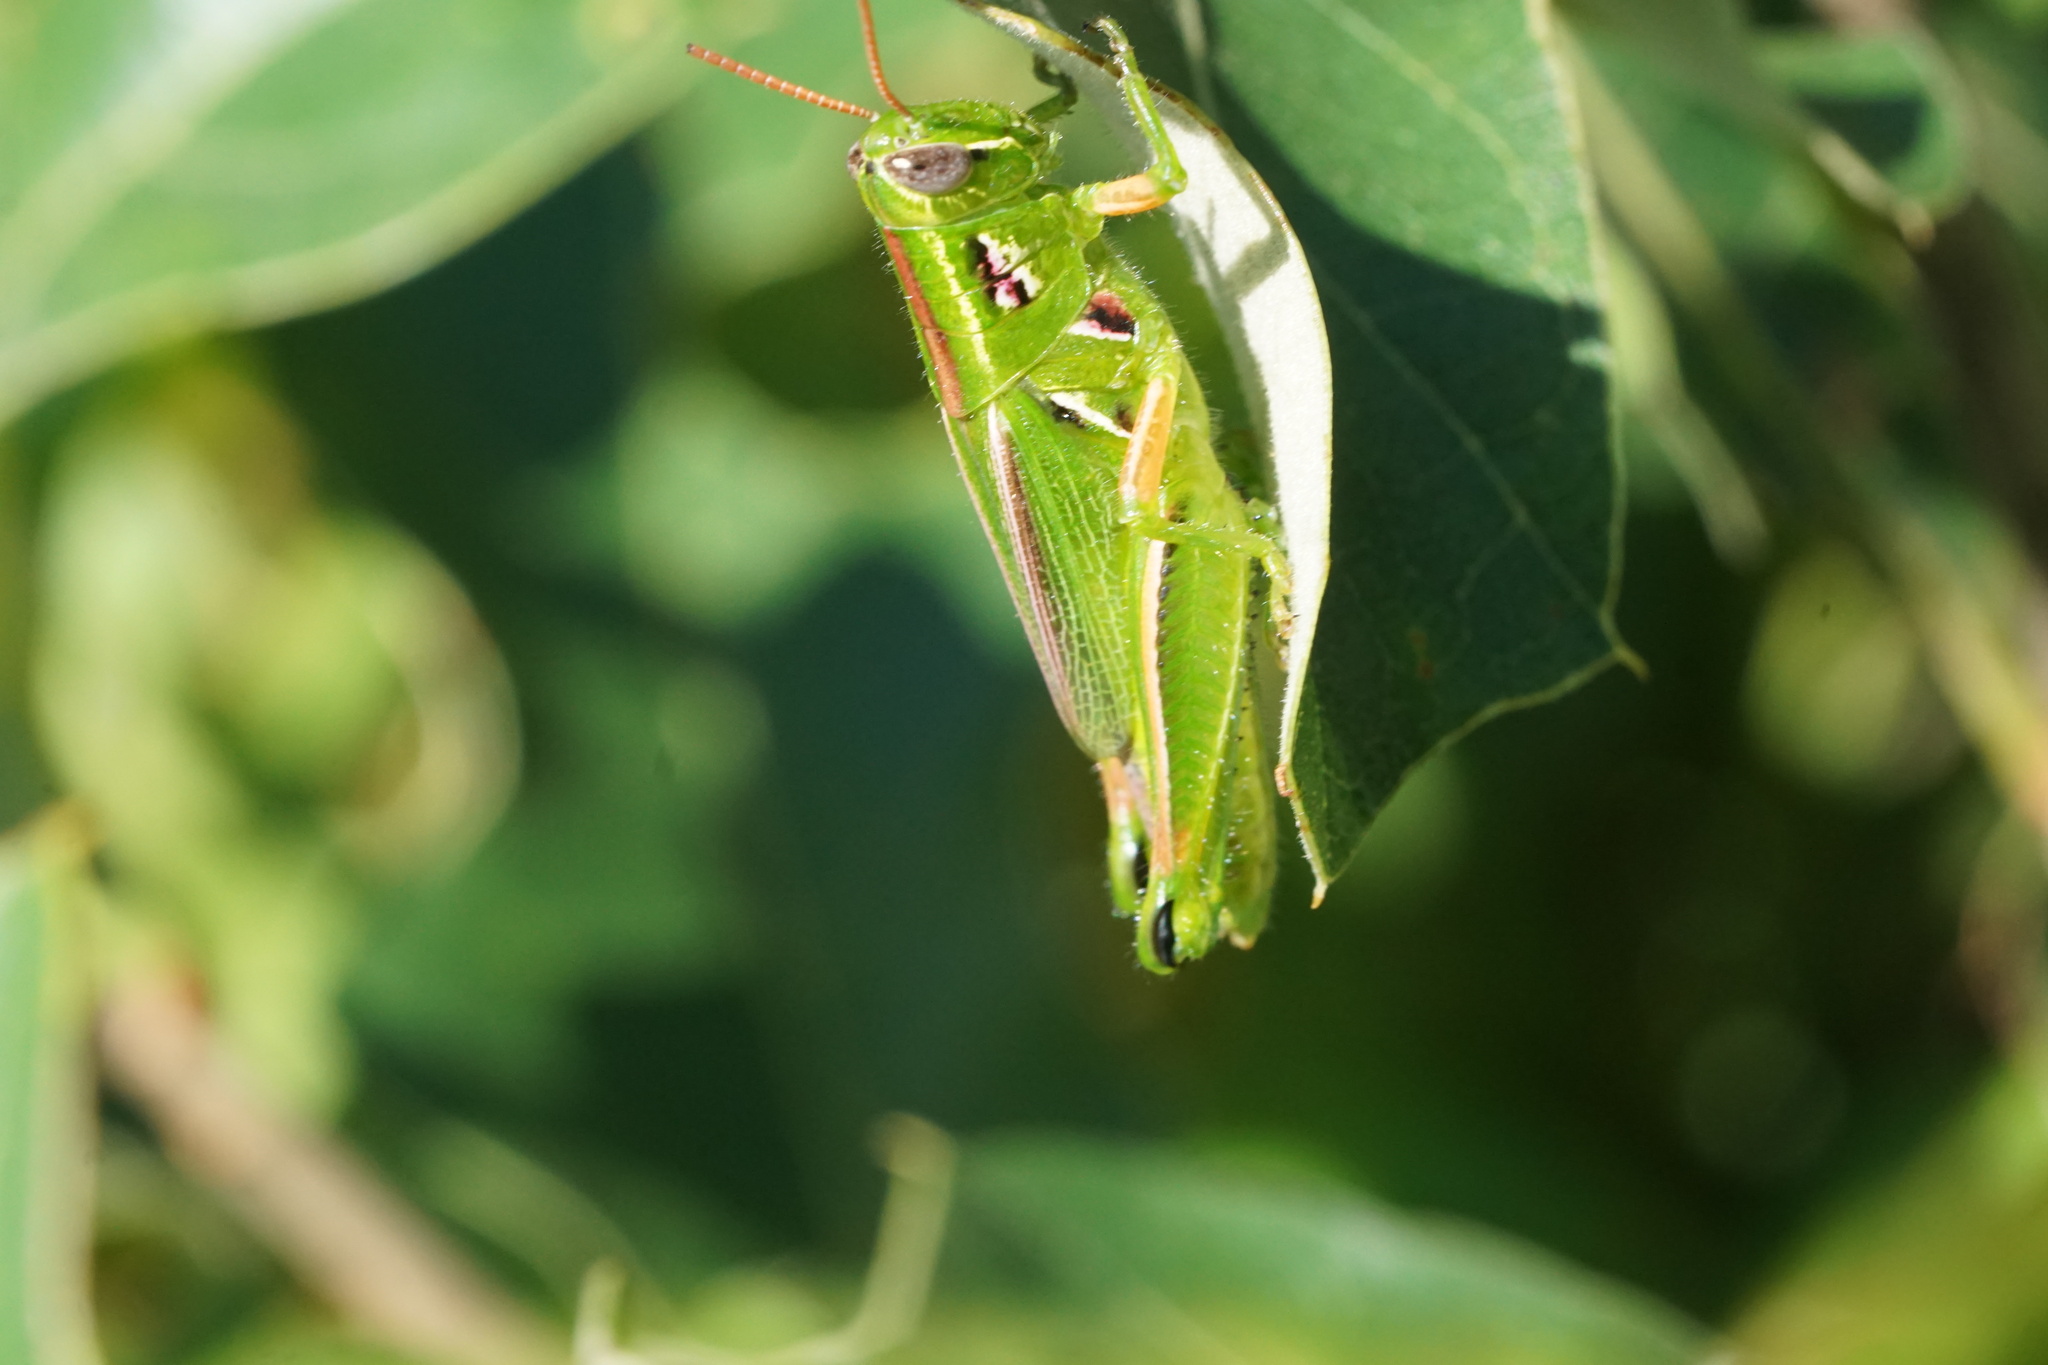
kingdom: Animalia
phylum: Arthropoda
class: Insecta
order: Orthoptera
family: Acrididae
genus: Hesperotettix
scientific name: Hesperotettix viridis
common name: Meadow purple-striped grasshopper
